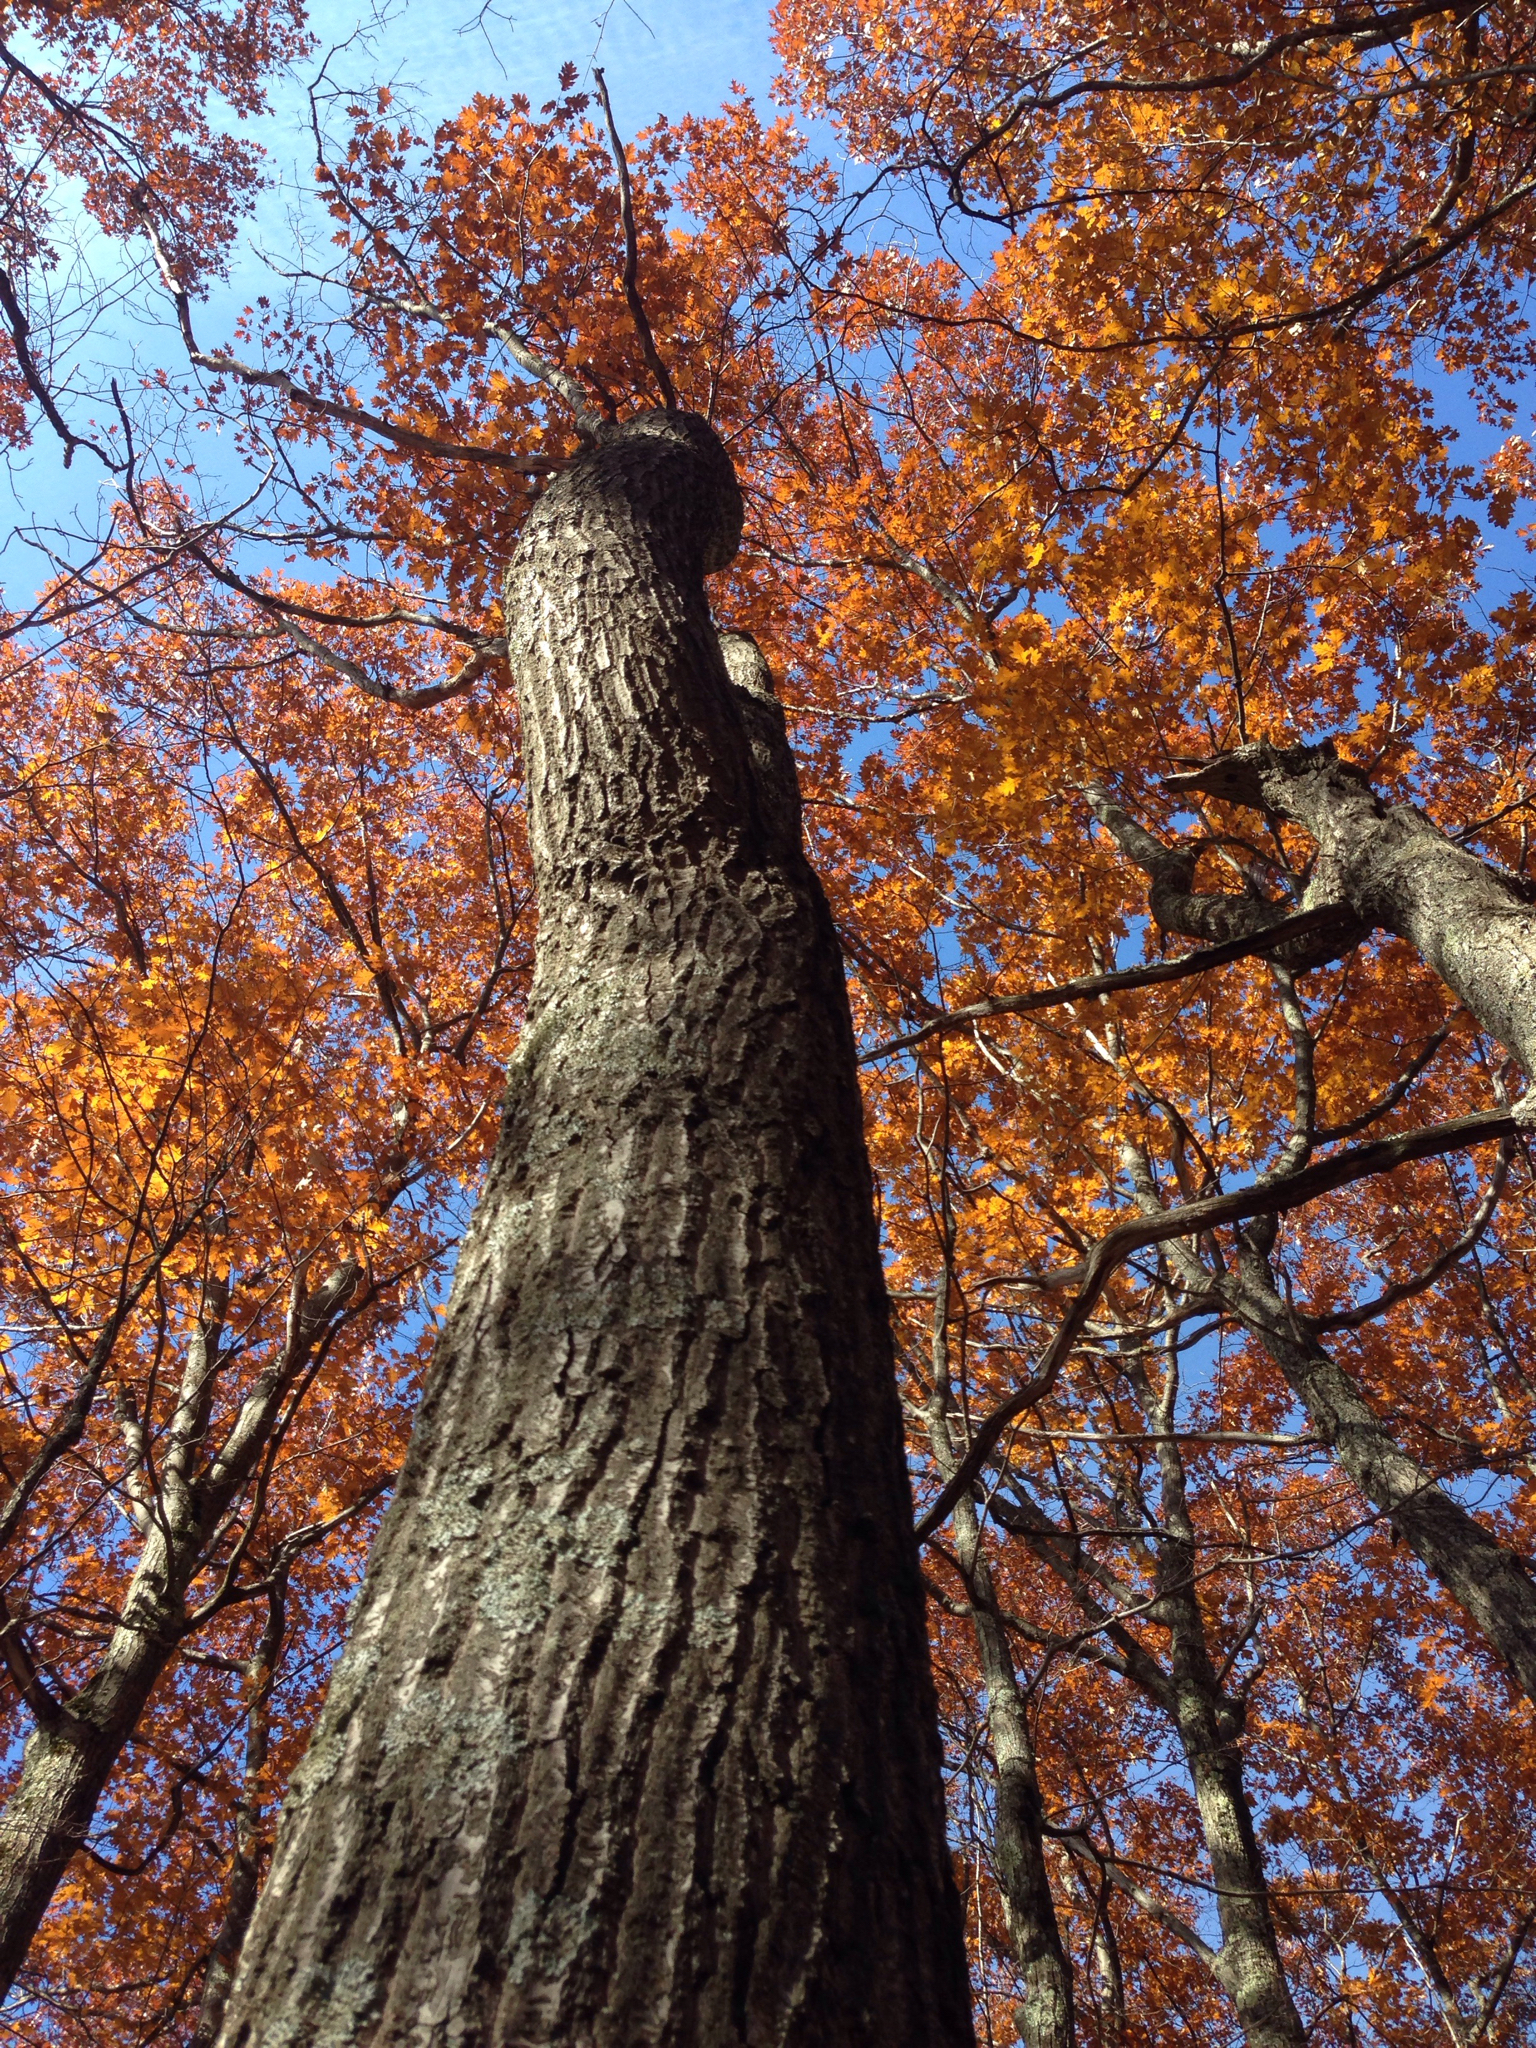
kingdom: Plantae
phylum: Tracheophyta
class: Magnoliopsida
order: Fagales
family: Fagaceae
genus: Quercus
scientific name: Quercus rubra
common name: Red oak
